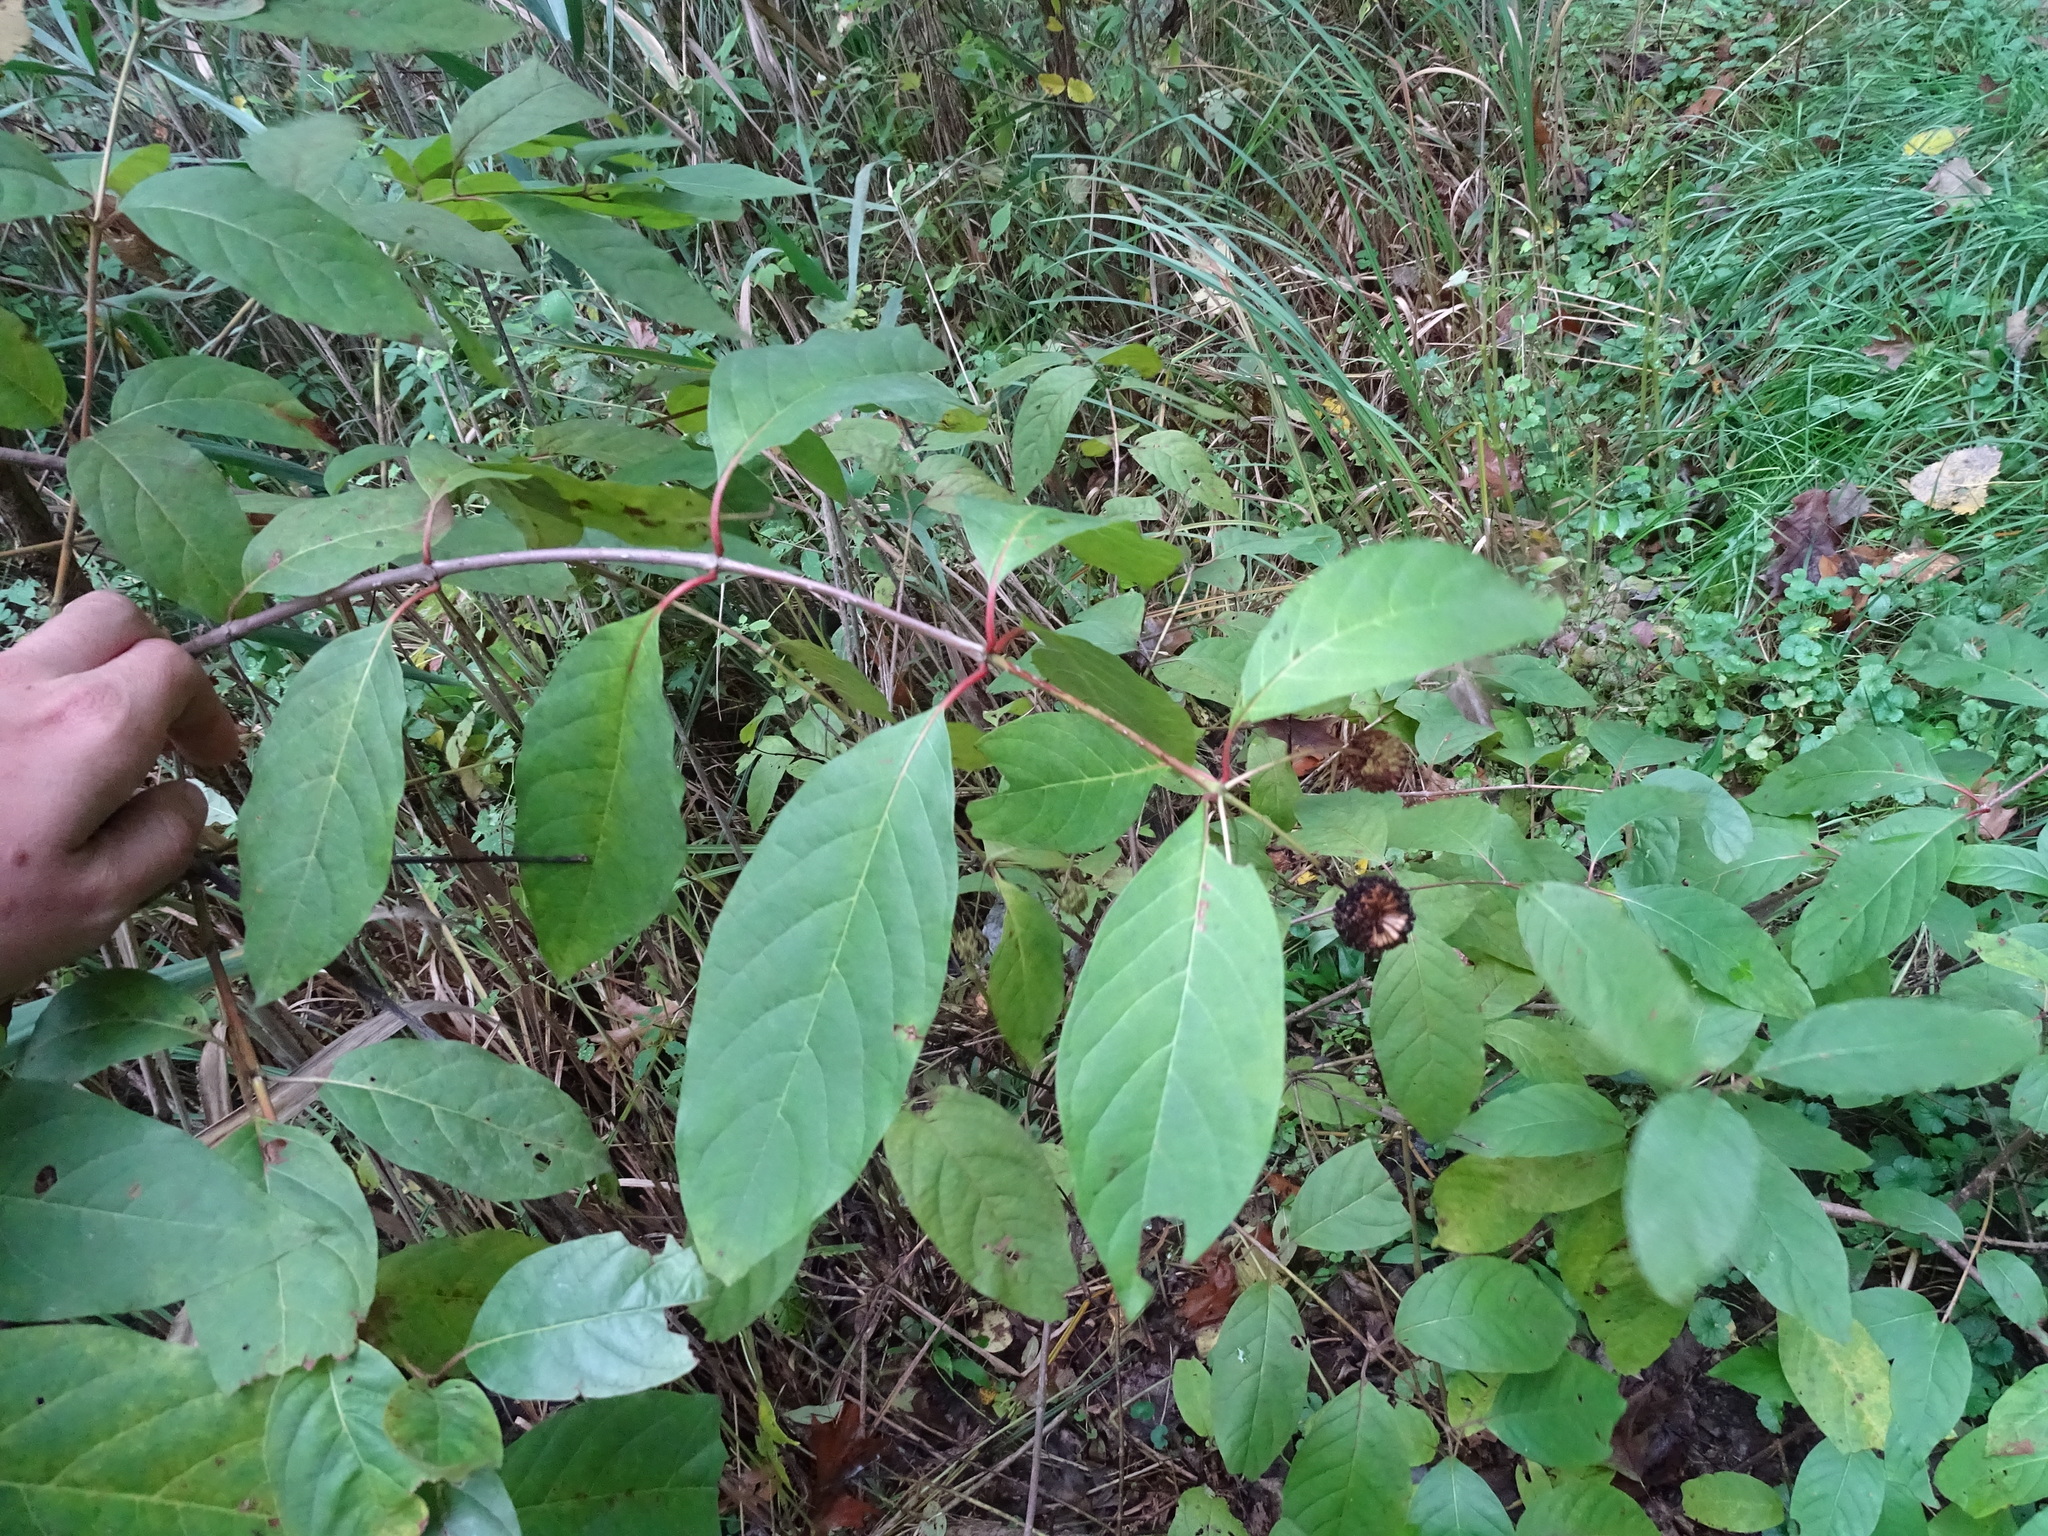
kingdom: Plantae
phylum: Tracheophyta
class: Magnoliopsida
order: Gentianales
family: Rubiaceae
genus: Cephalanthus
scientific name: Cephalanthus occidentalis
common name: Button-willow
